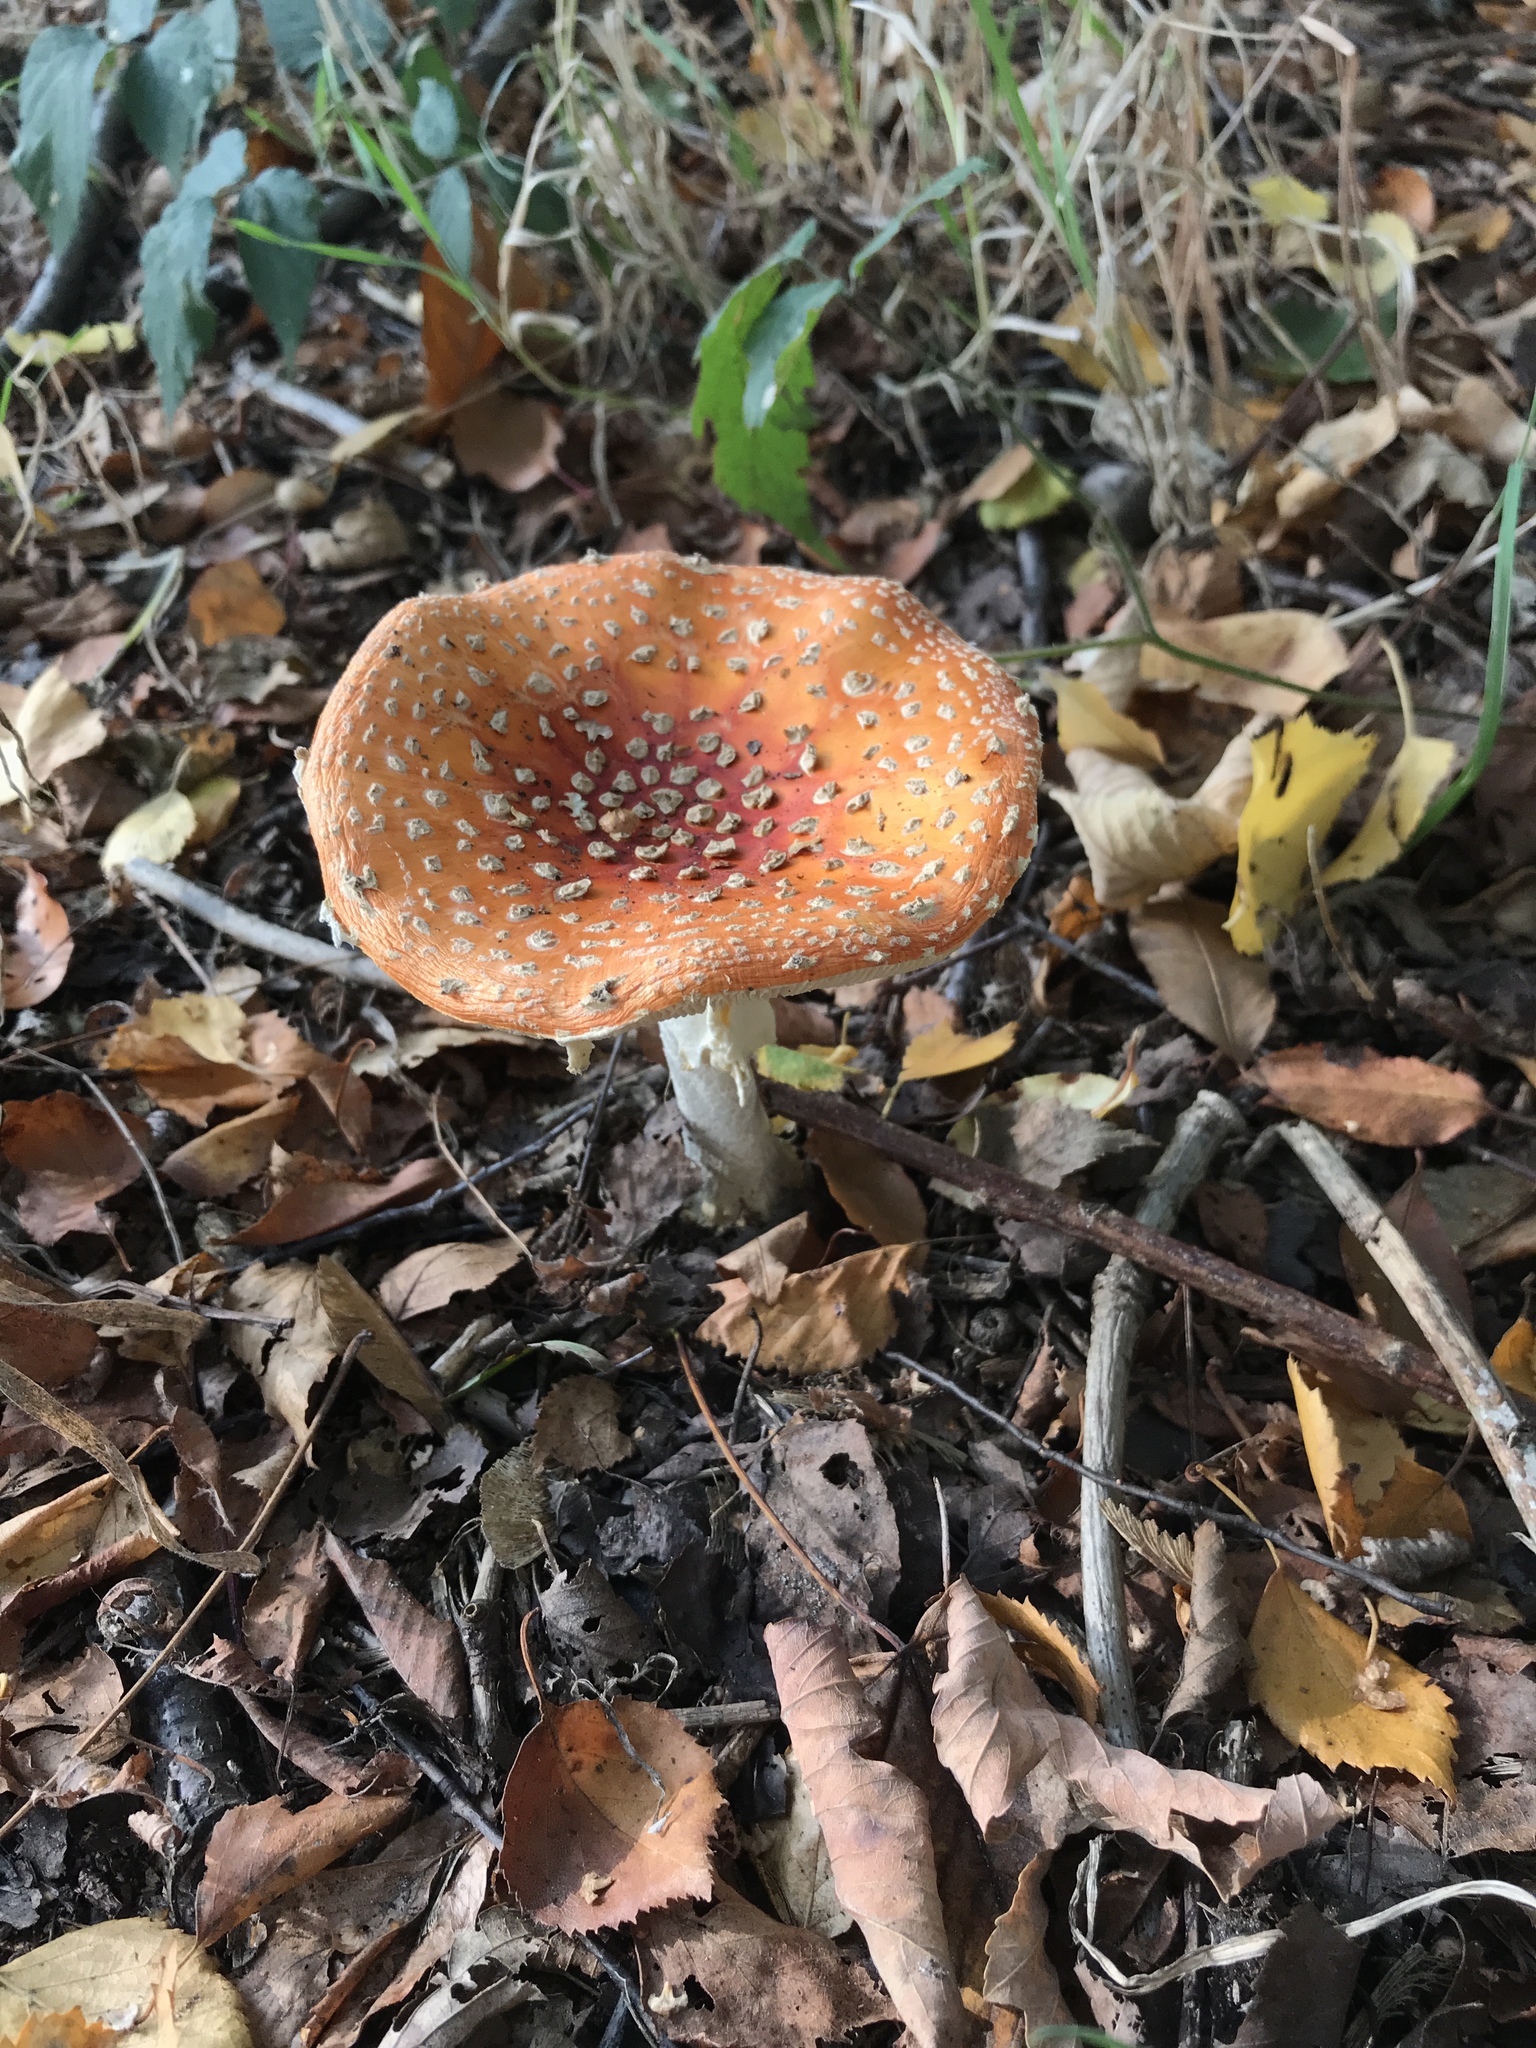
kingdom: Fungi
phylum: Basidiomycota
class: Agaricomycetes
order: Agaricales
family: Amanitaceae
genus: Amanita
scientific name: Amanita muscaria
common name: Fly agaric
